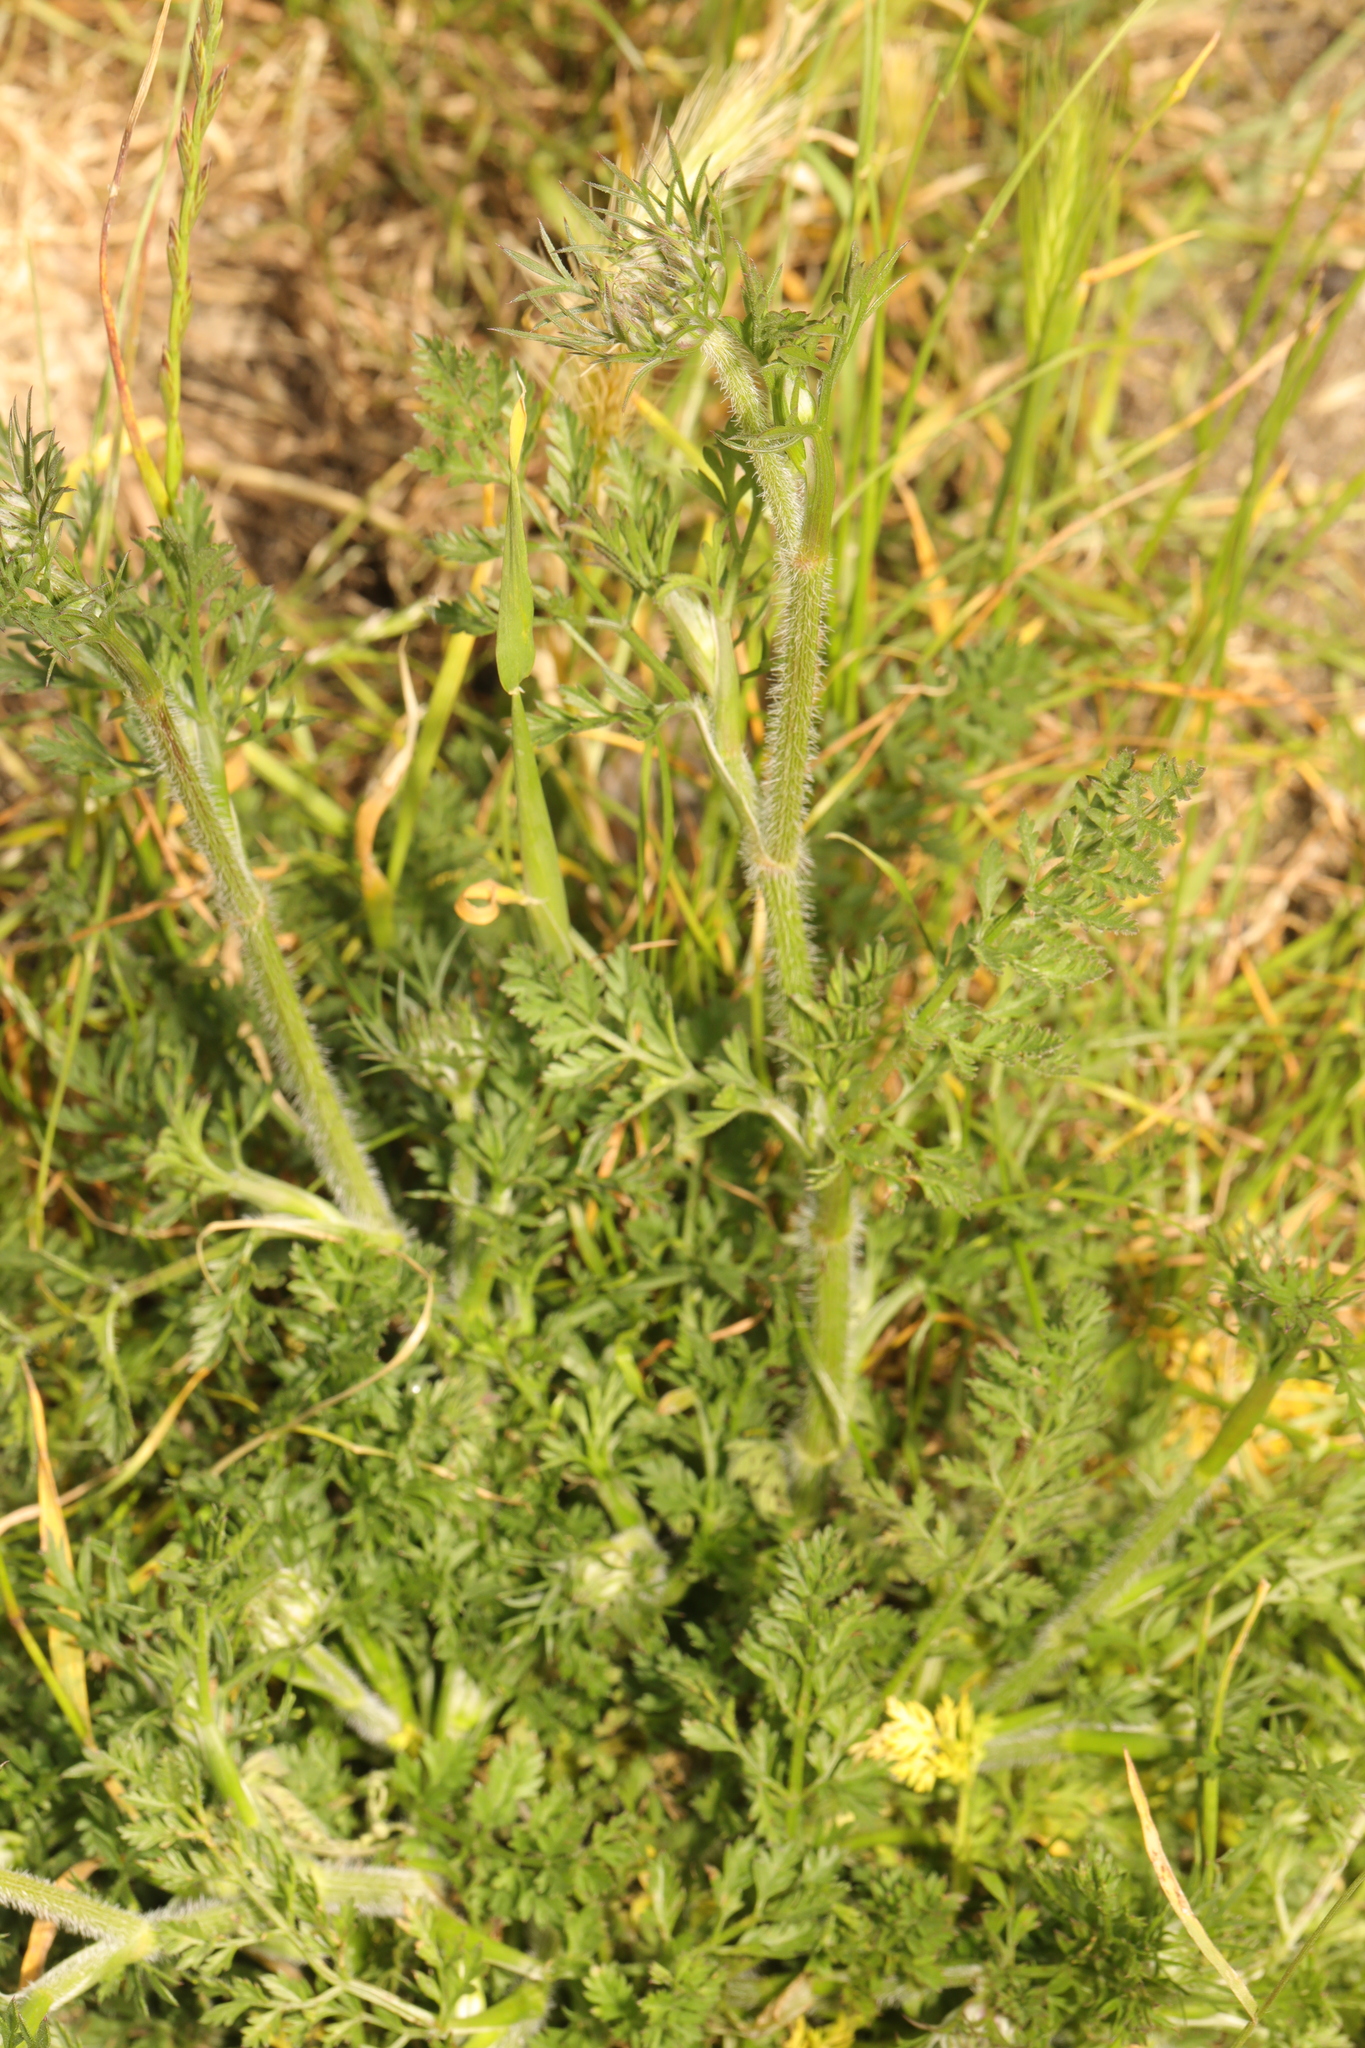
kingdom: Plantae
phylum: Tracheophyta
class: Magnoliopsida
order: Apiales
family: Apiaceae
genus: Daucus
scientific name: Daucus carota
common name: Wild carrot
